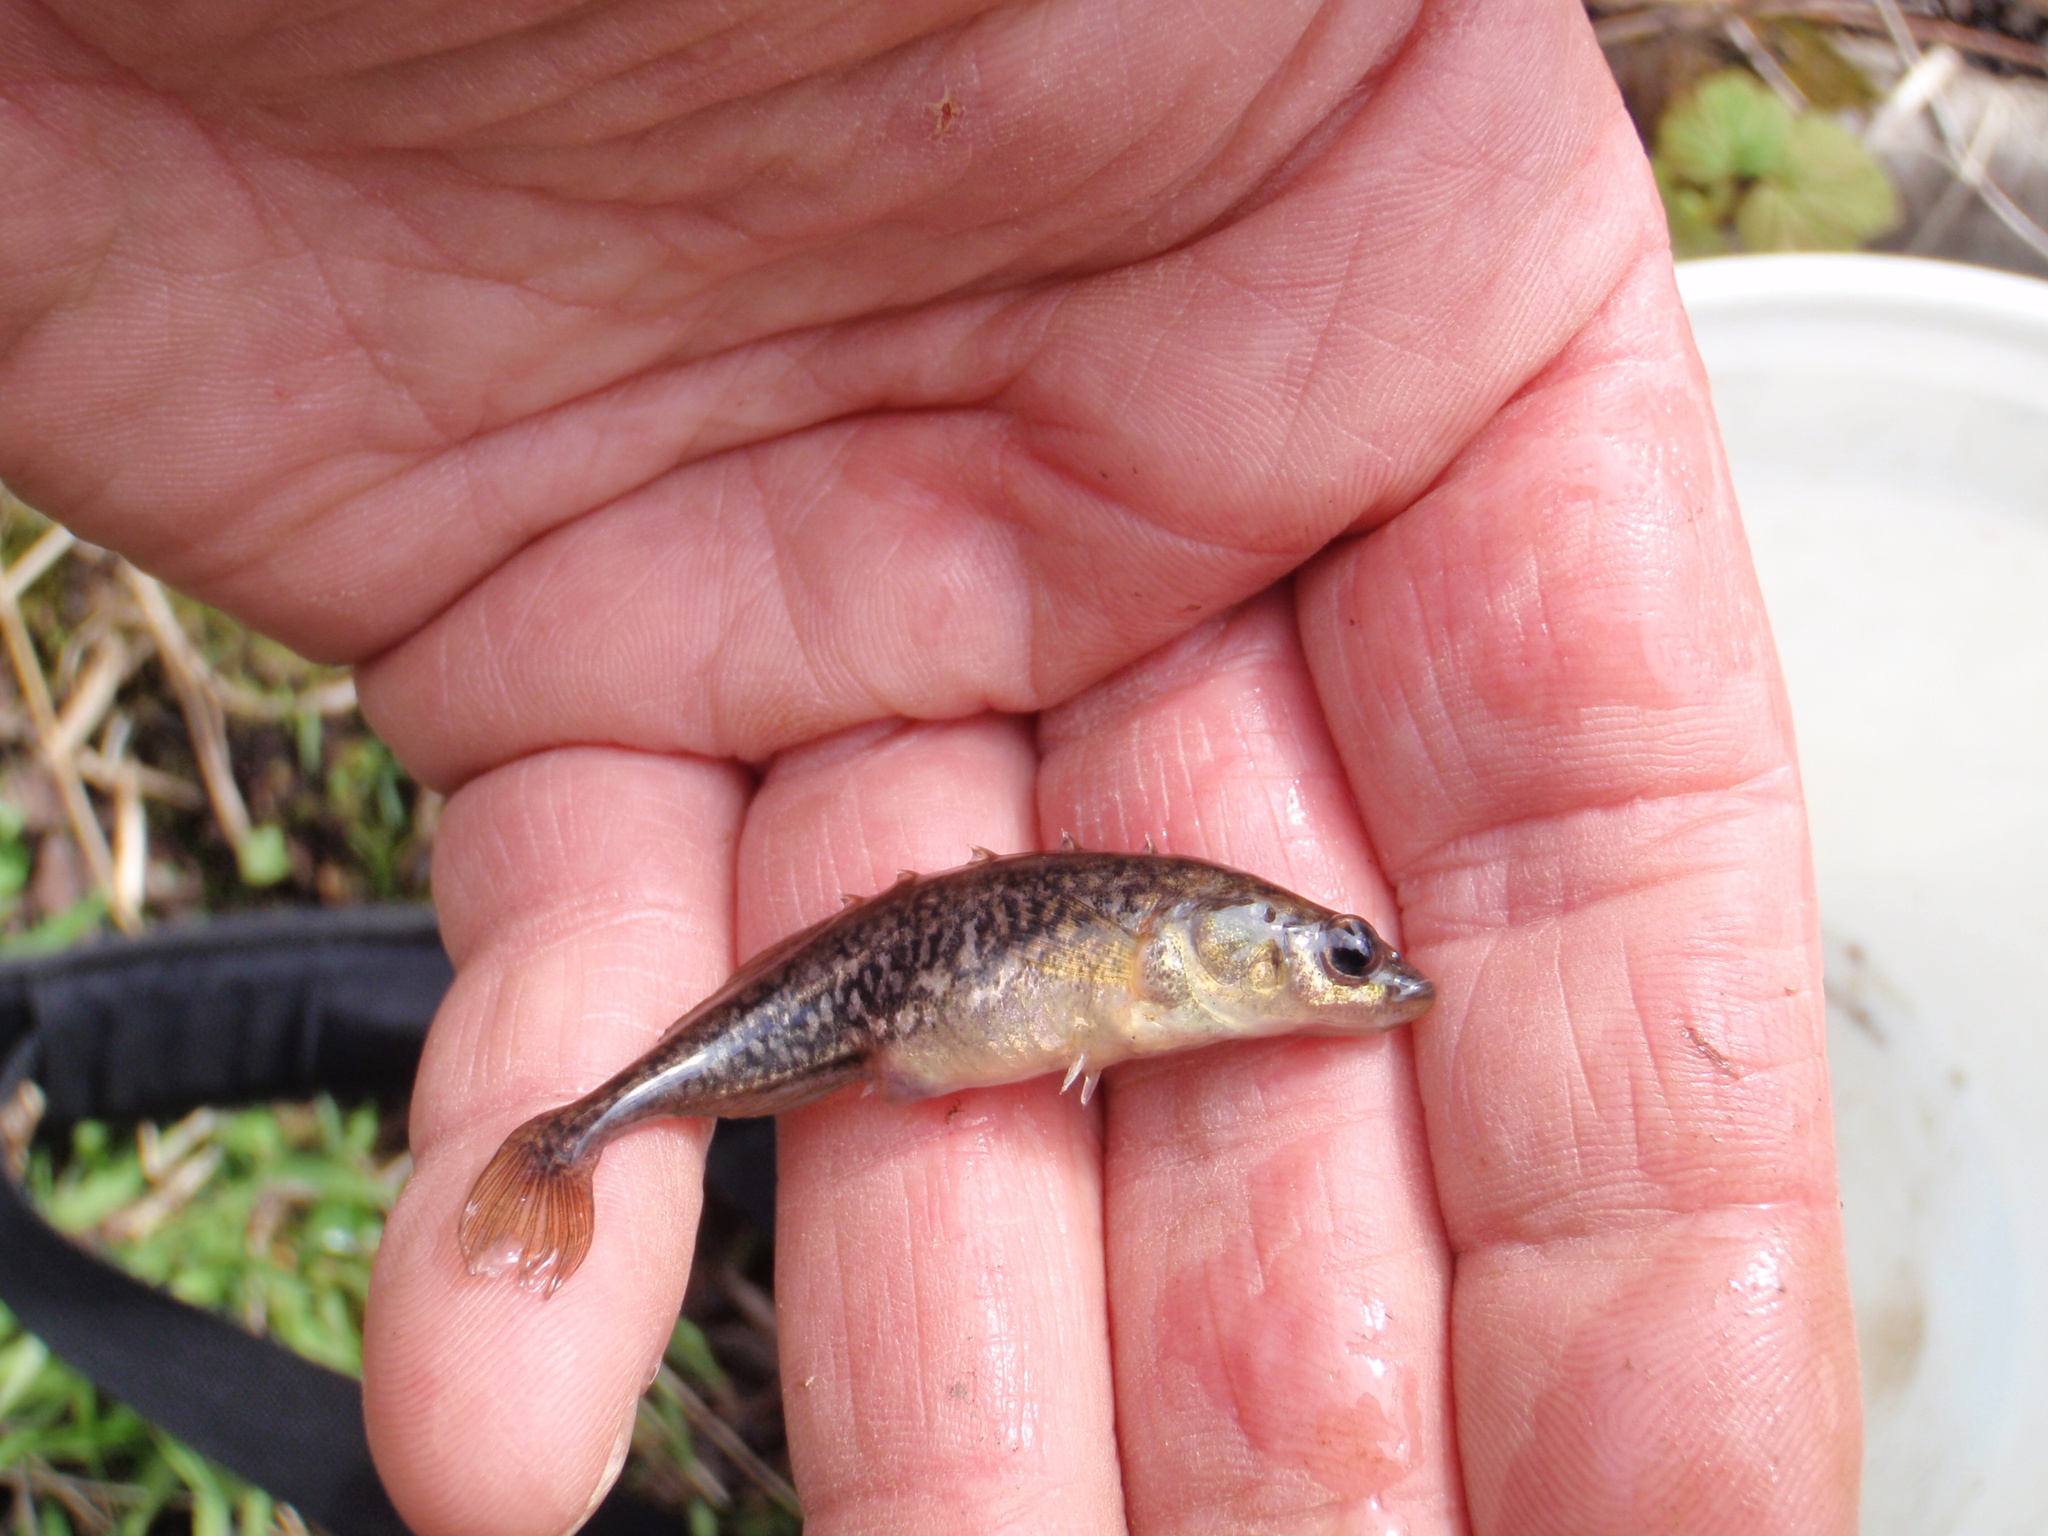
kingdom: Animalia
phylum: Chordata
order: Gasterosteiformes
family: Gasterosteidae
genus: Culaea
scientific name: Culaea inconstans
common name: Brook stickleback
